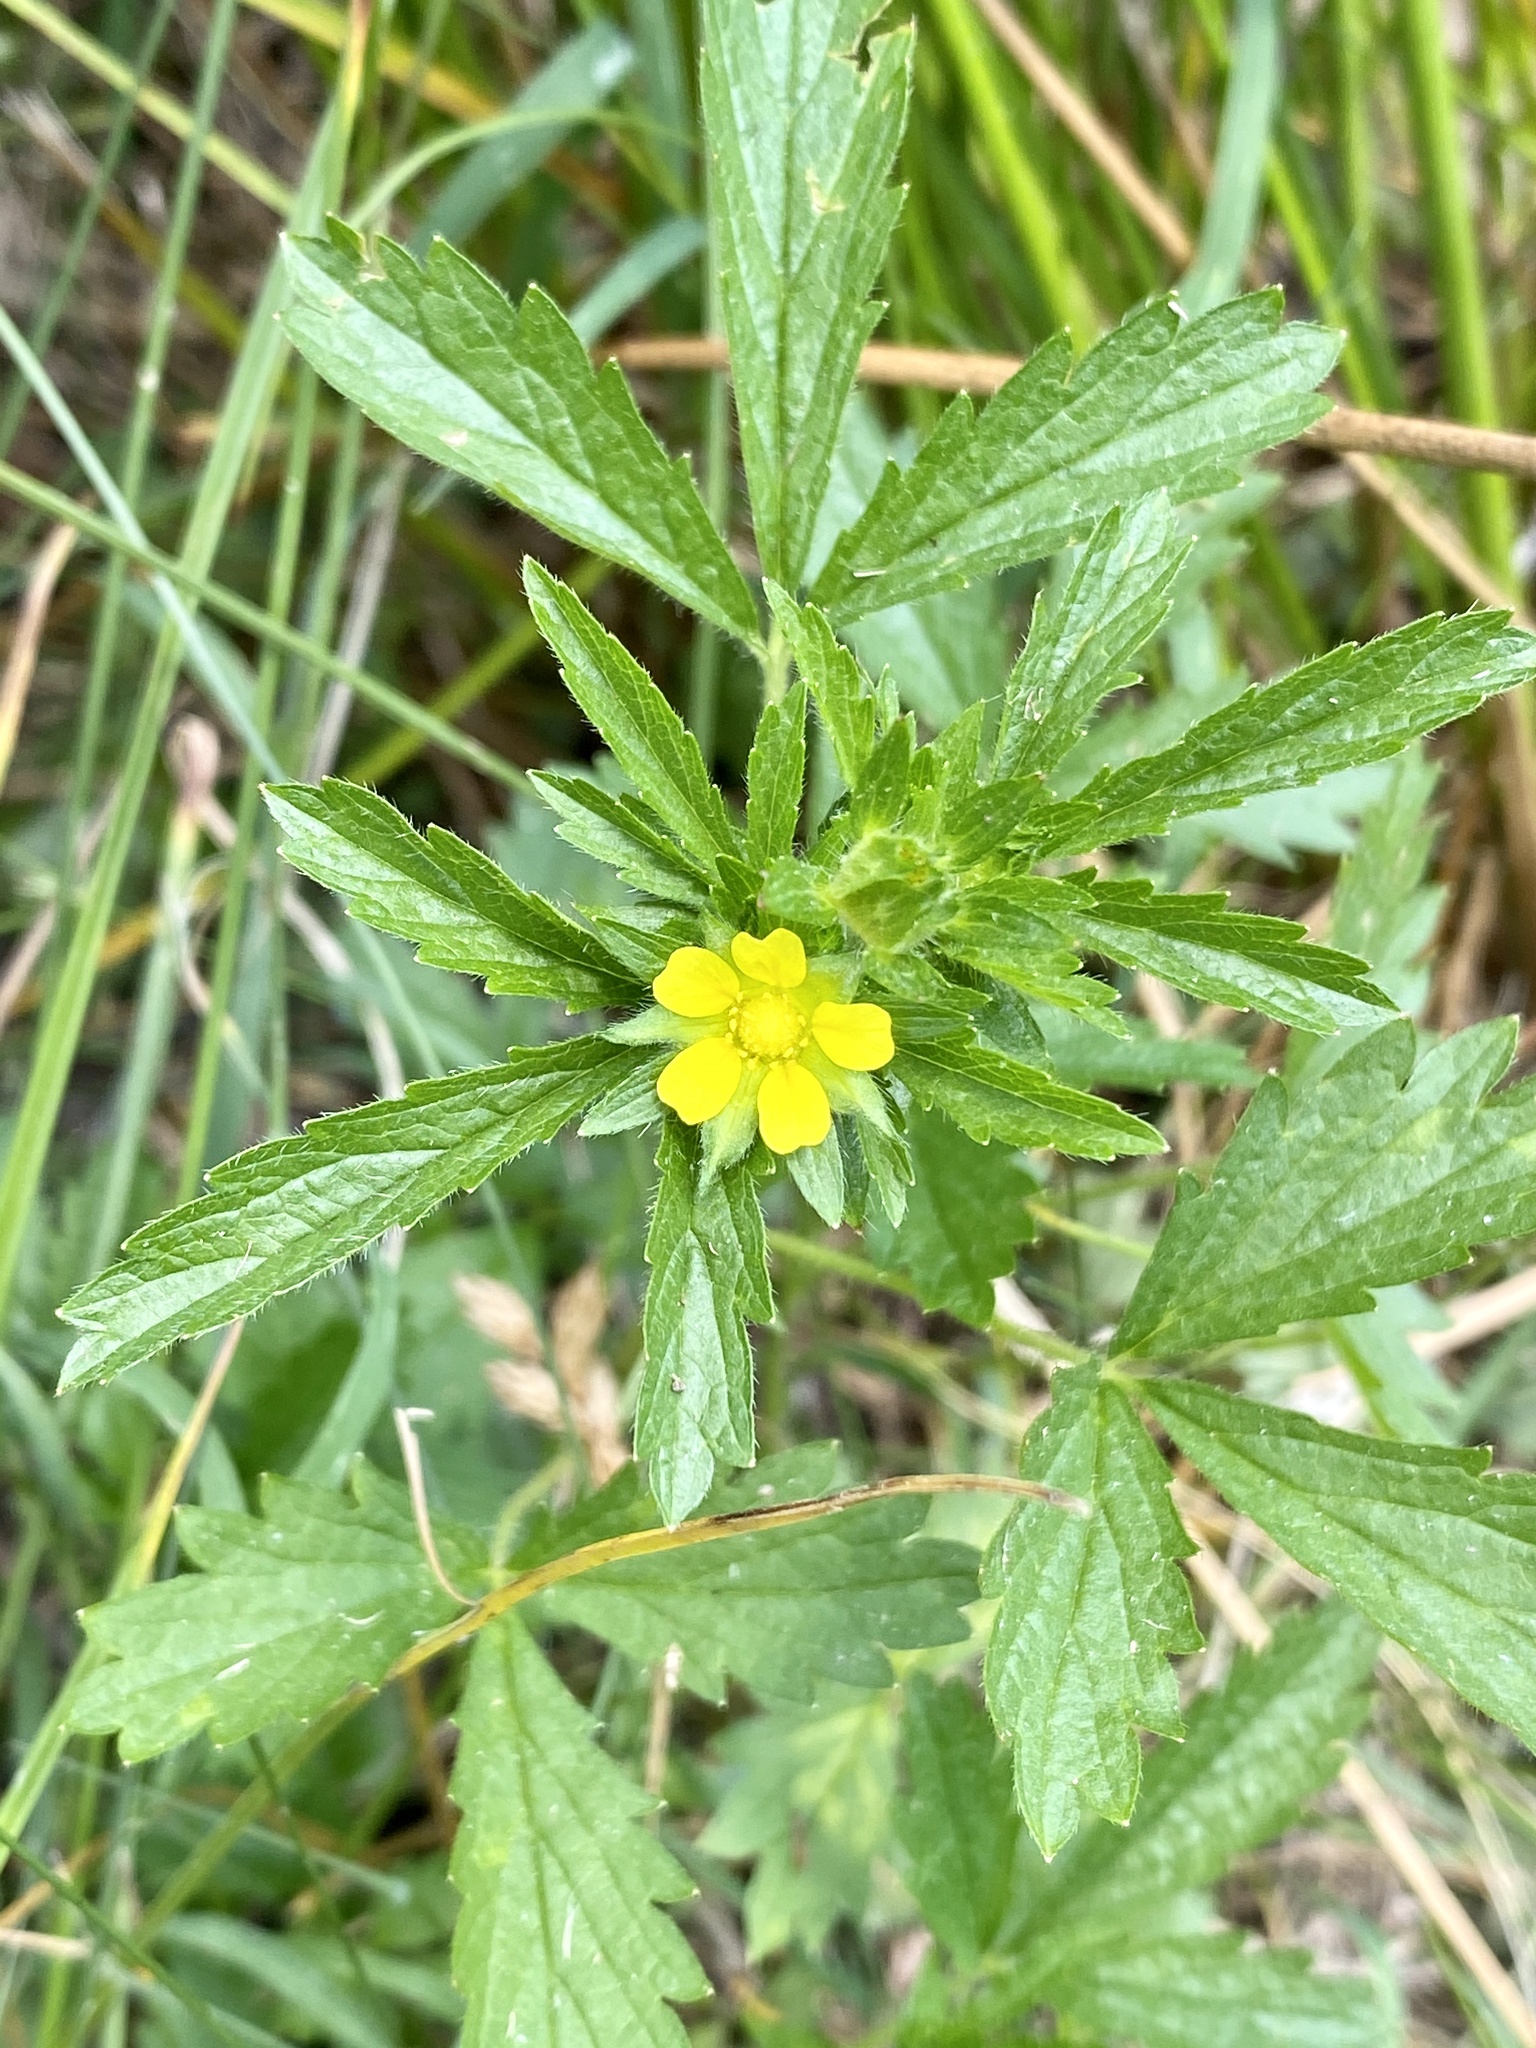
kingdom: Plantae
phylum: Tracheophyta
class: Magnoliopsida
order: Rosales
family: Rosaceae
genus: Potentilla
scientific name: Potentilla norvegica
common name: Ternate-leaved cinquefoil
